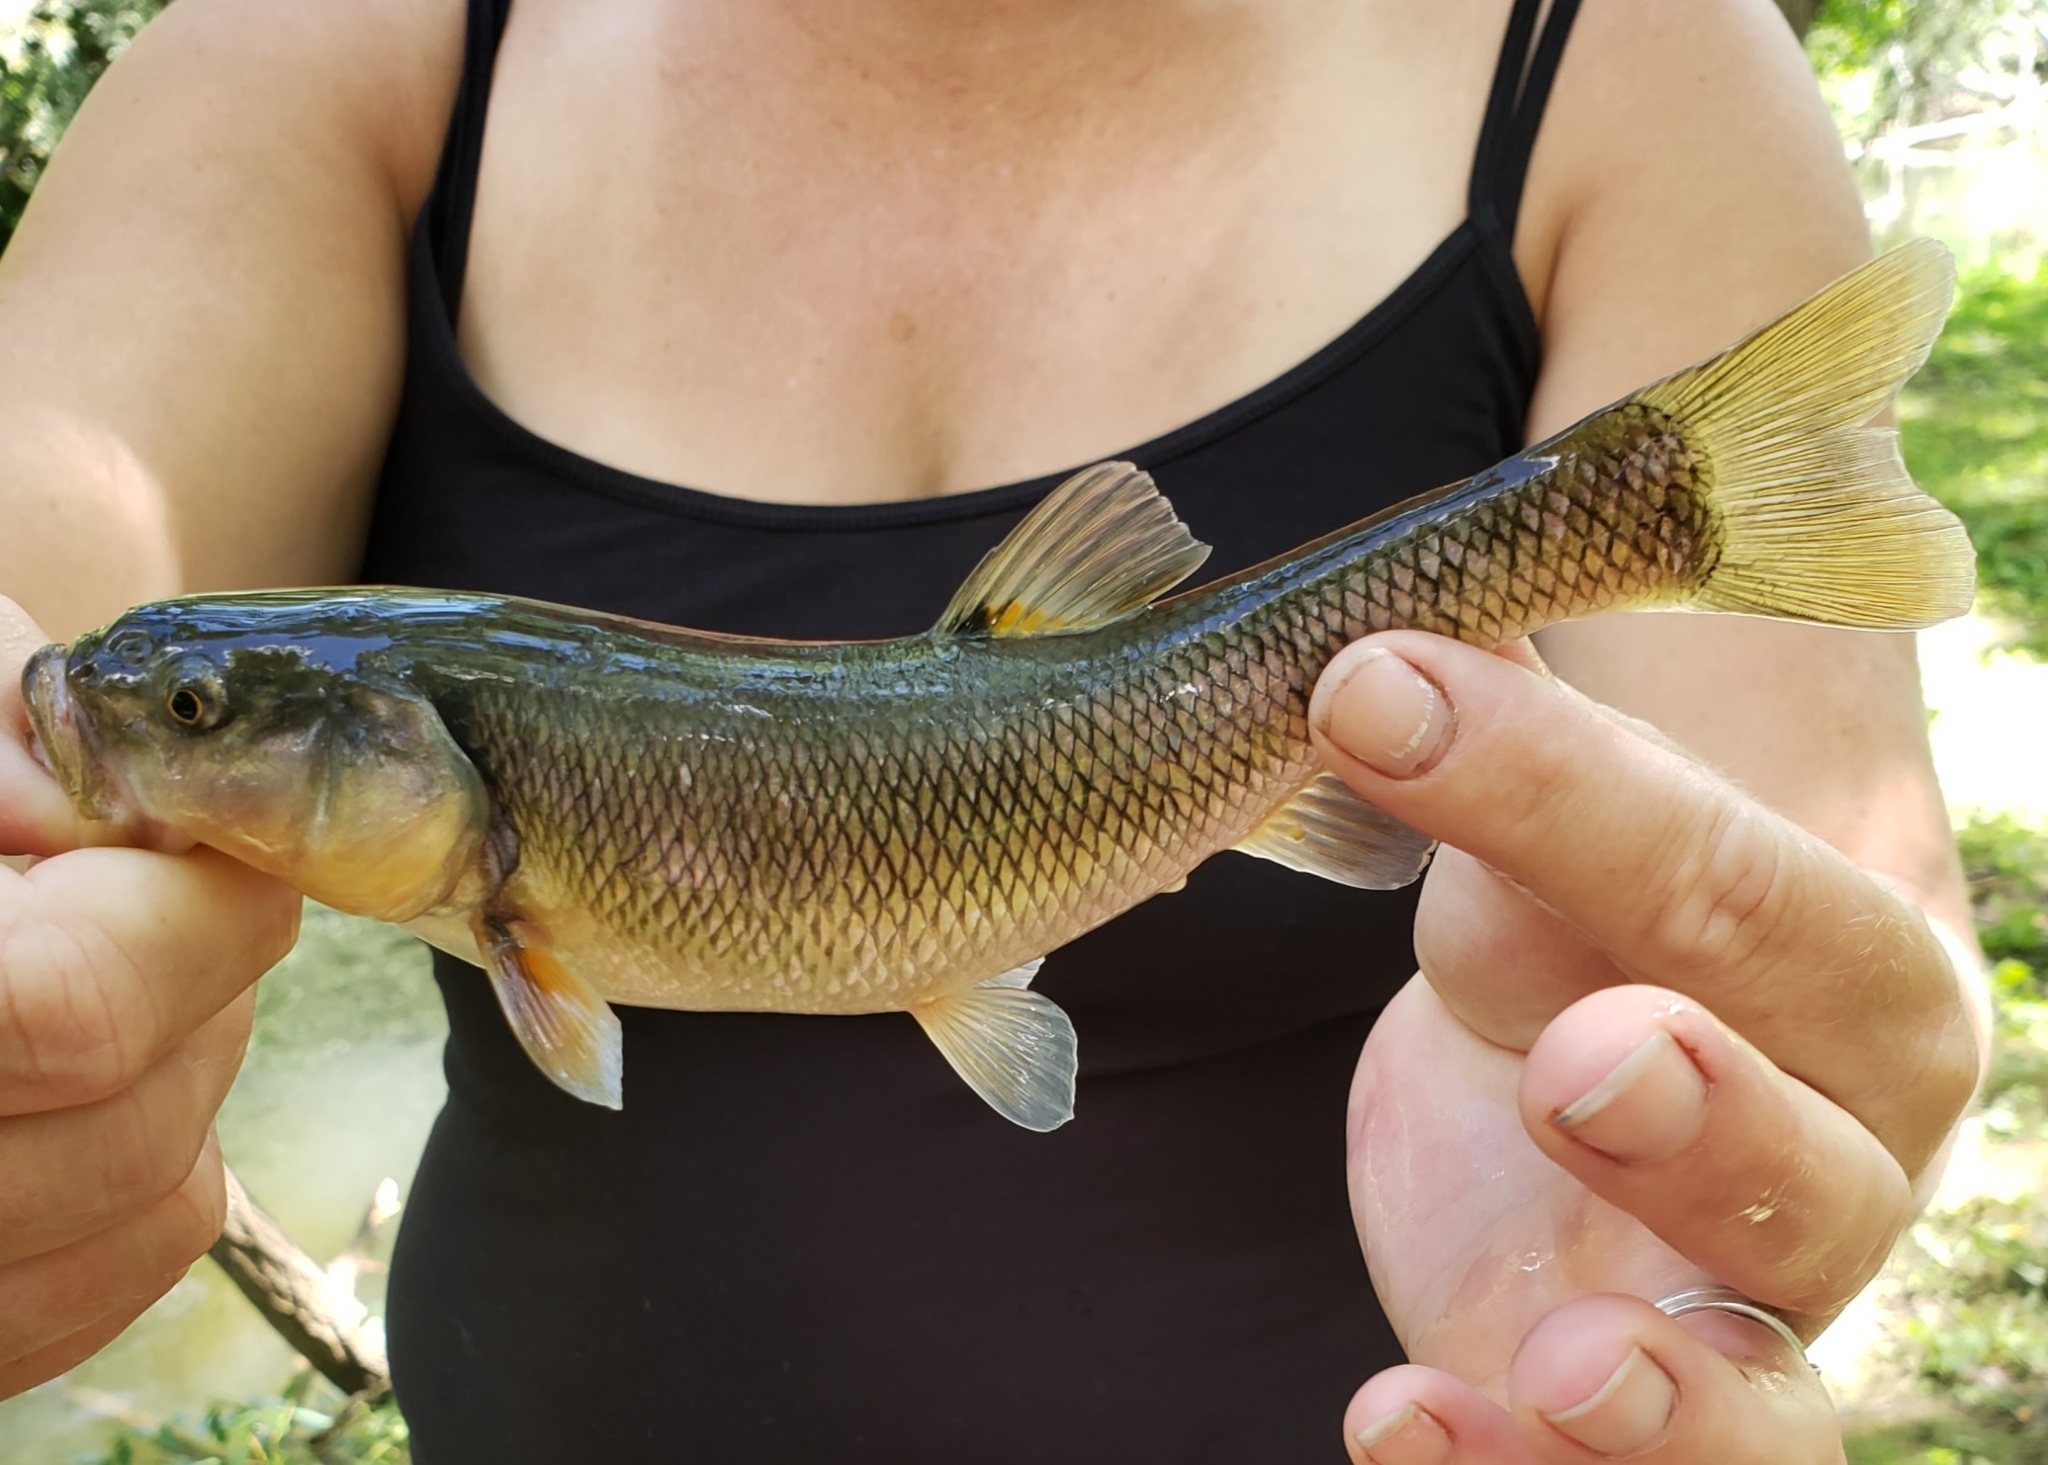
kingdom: Animalia
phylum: Chordata
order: Cypriniformes
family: Cyprinidae
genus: Semotilus
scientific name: Semotilus atromaculatus
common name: Creek chub
